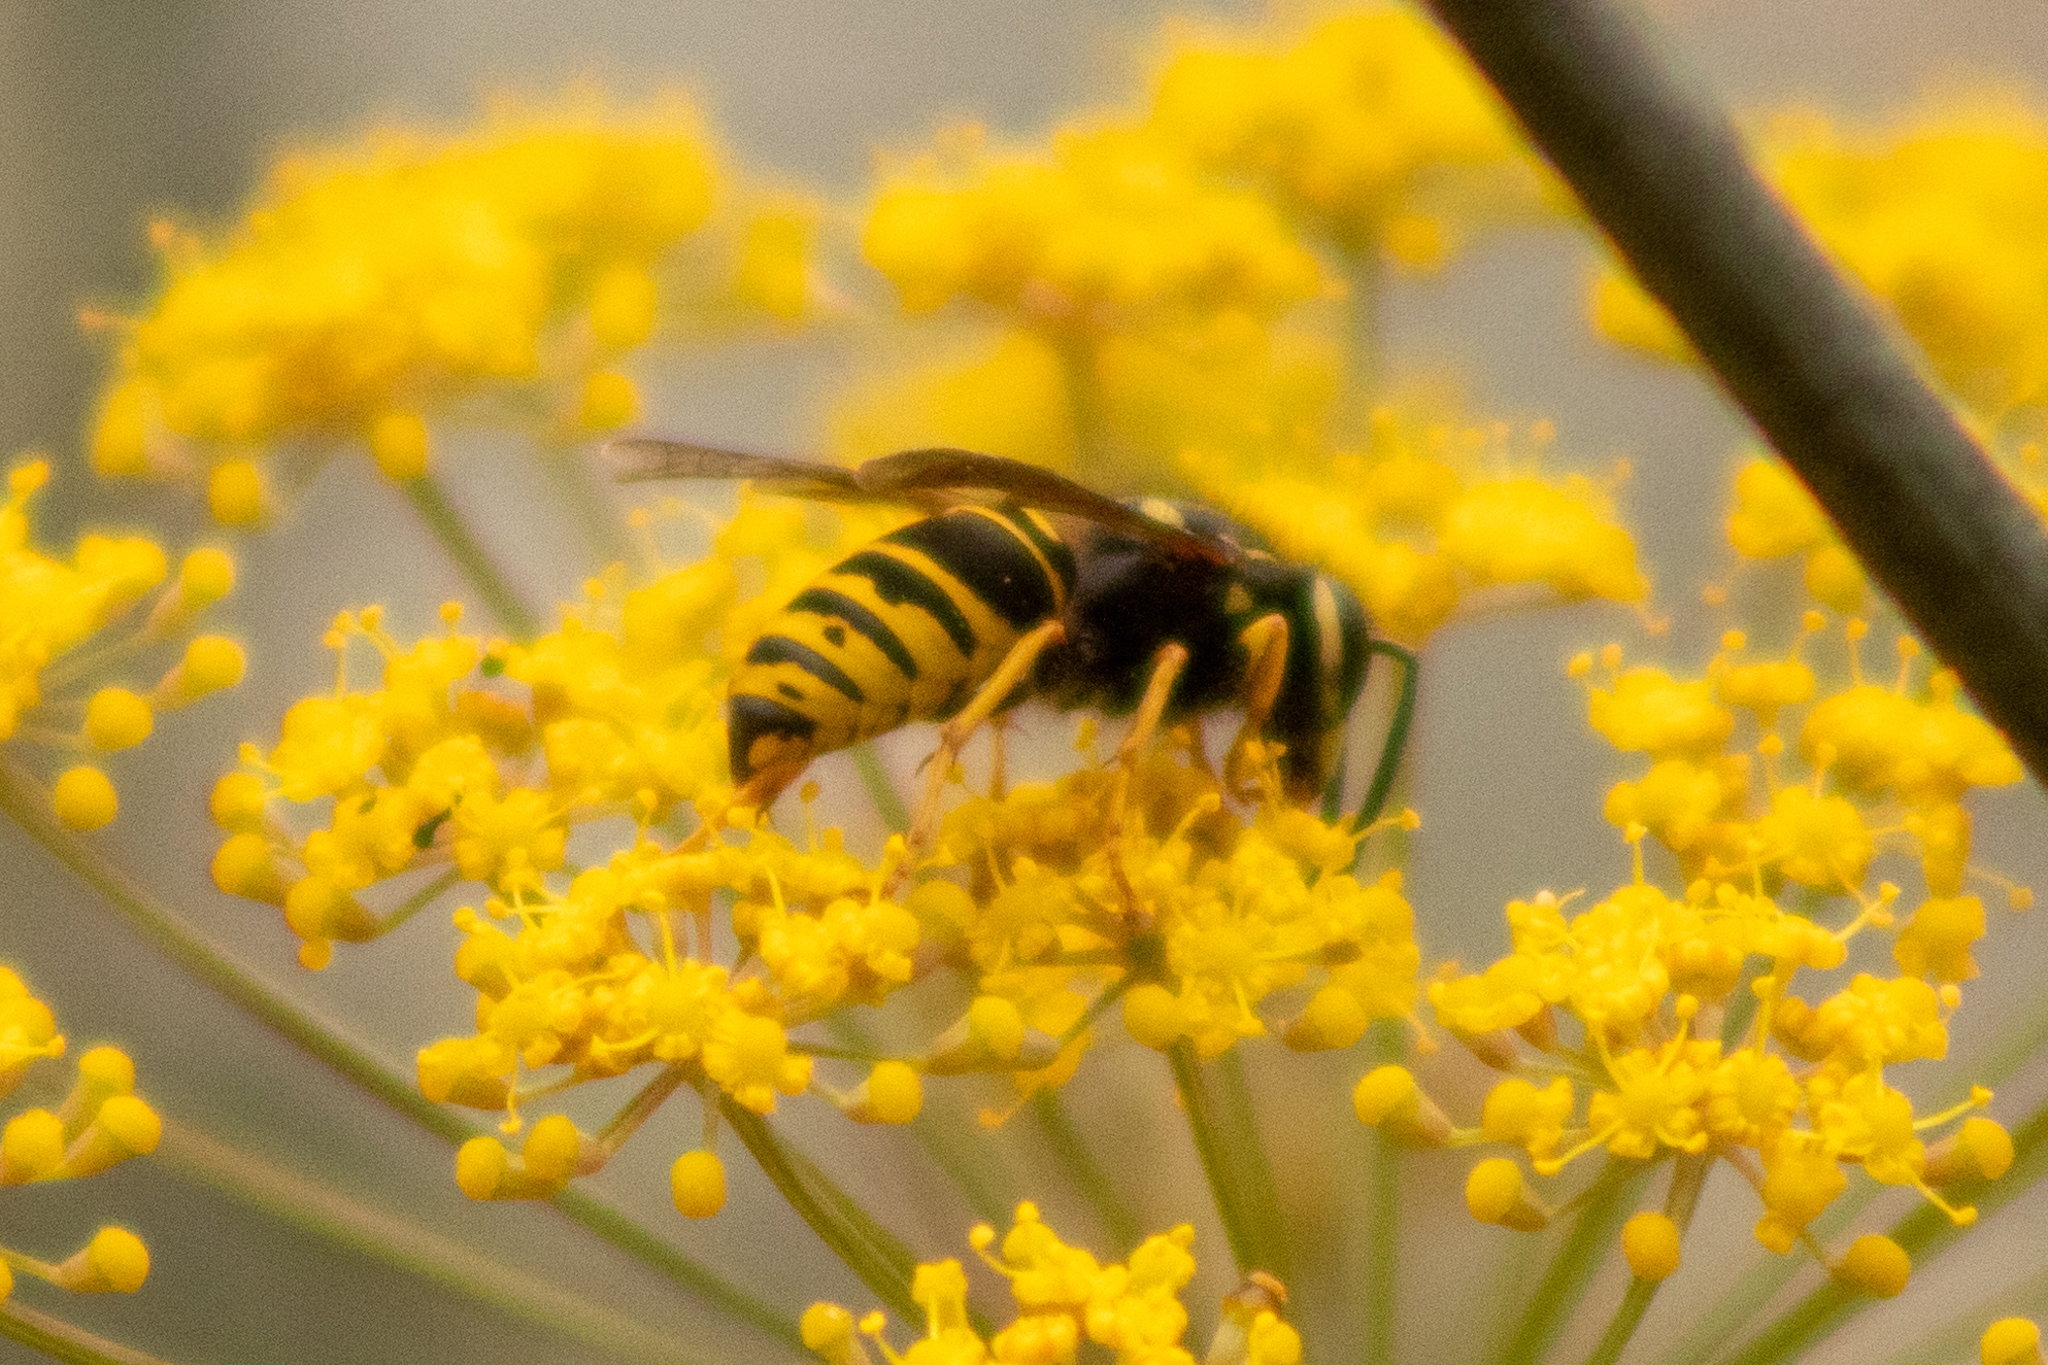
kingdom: Animalia
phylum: Arthropoda
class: Insecta
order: Hymenoptera
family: Vespidae
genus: Vespula
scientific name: Vespula vidua
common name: Widow yellowjacket
